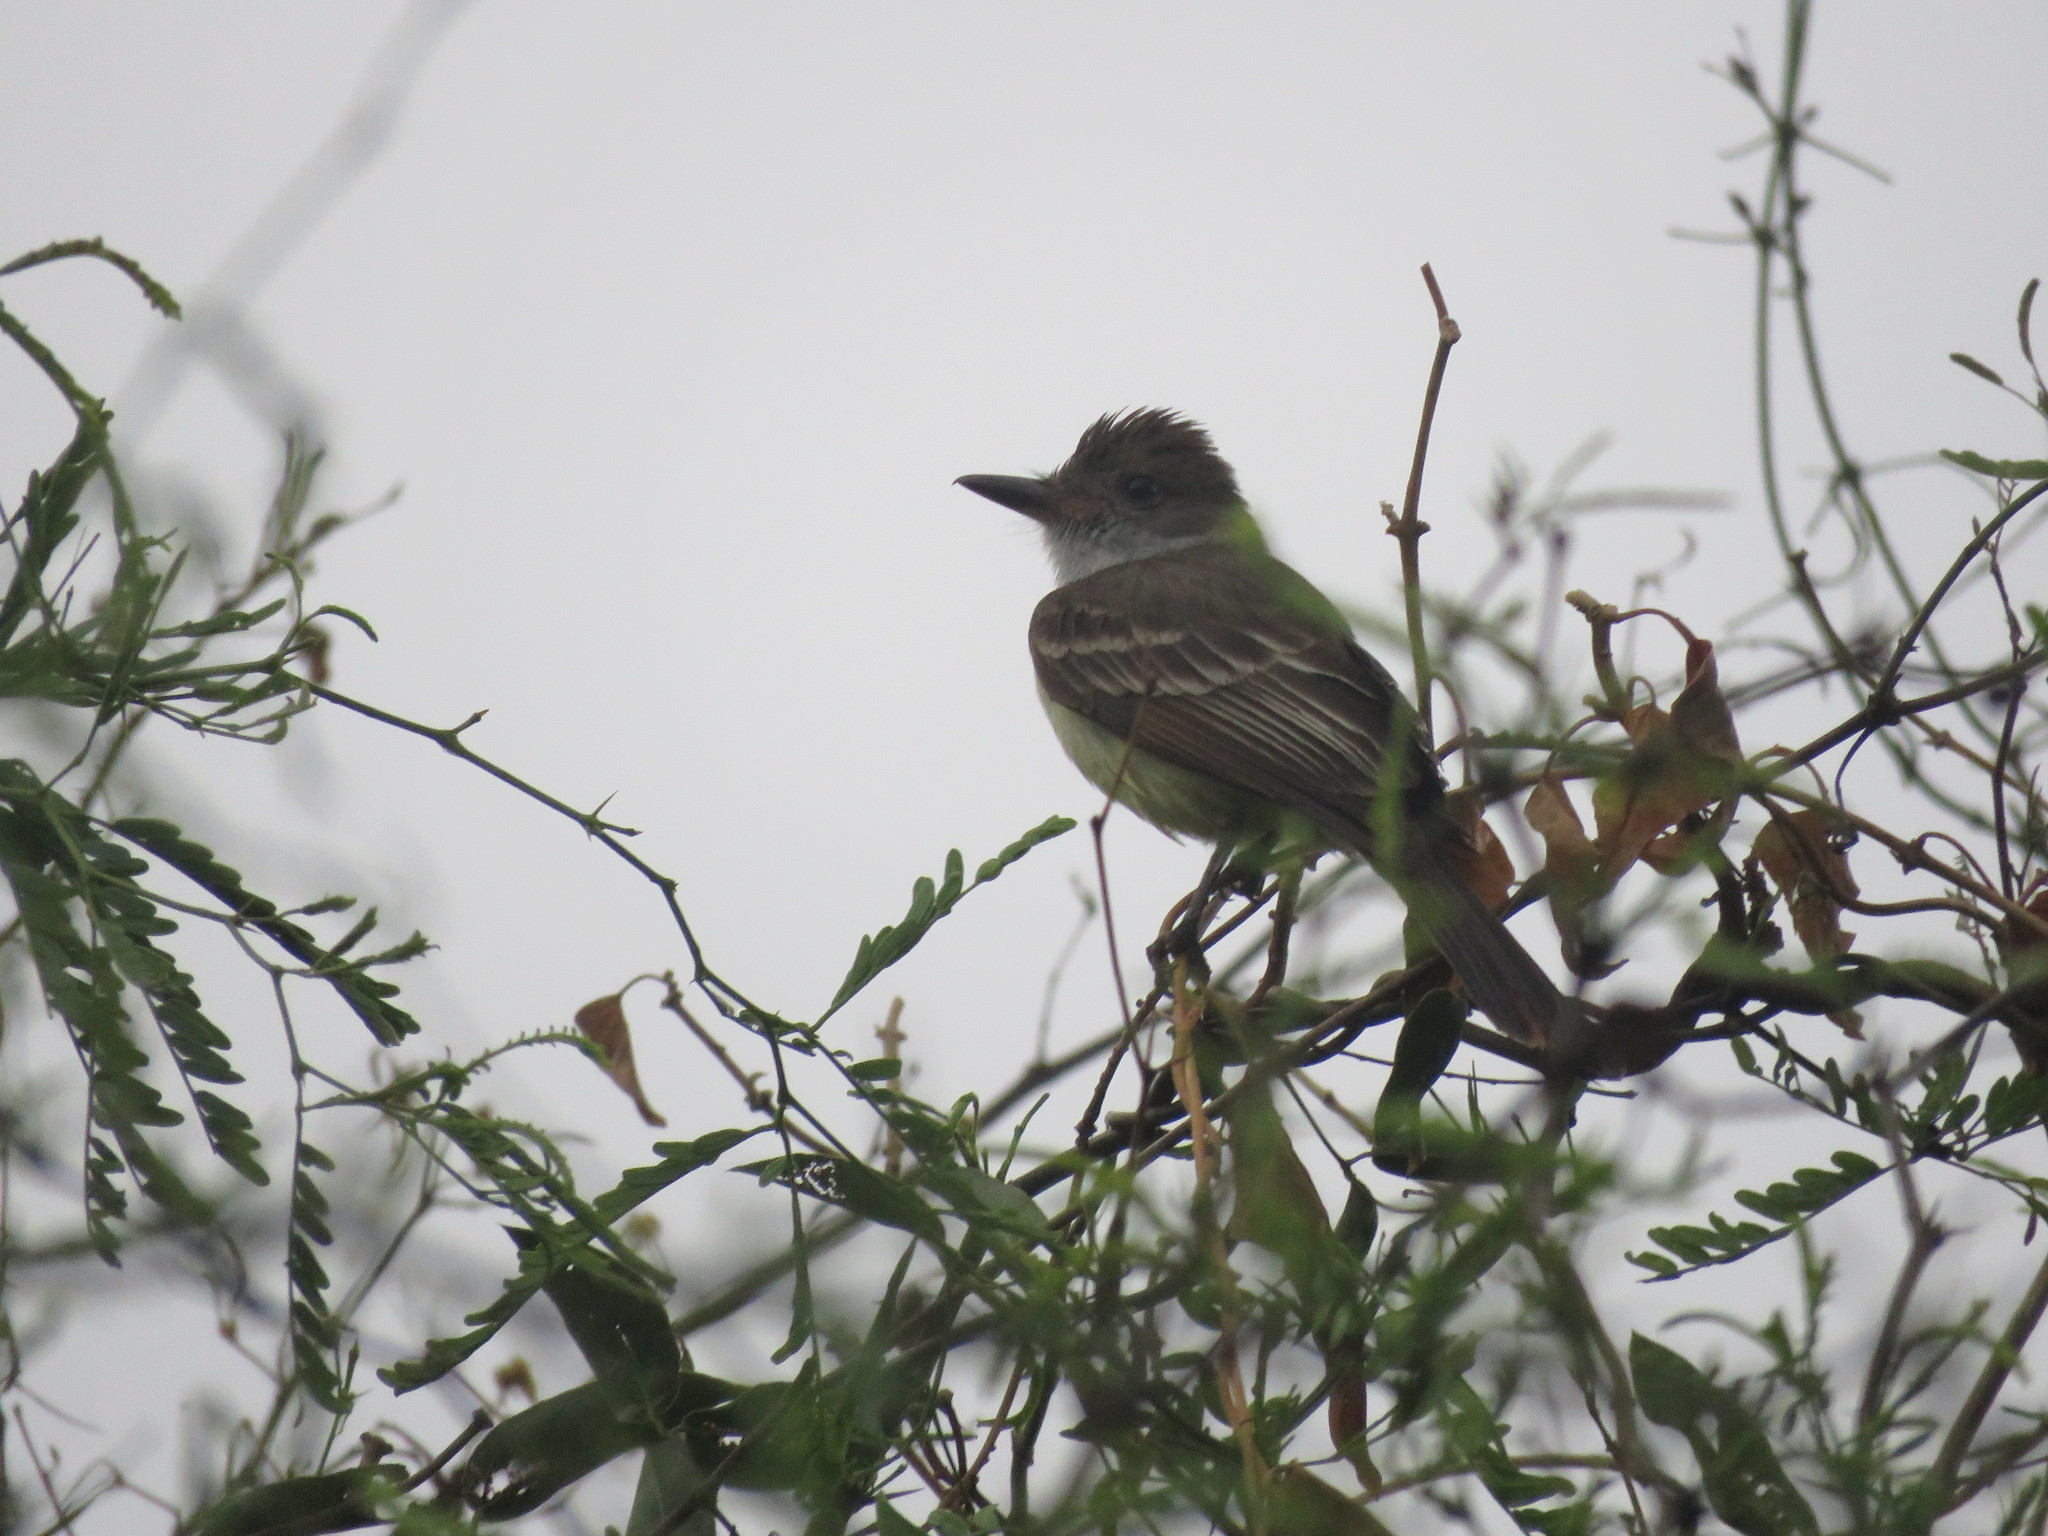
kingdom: Animalia
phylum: Chordata
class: Aves
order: Passeriformes
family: Tyrannidae
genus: Myiarchus
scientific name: Myiarchus tyrannulus
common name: Brown-crested flycatcher
